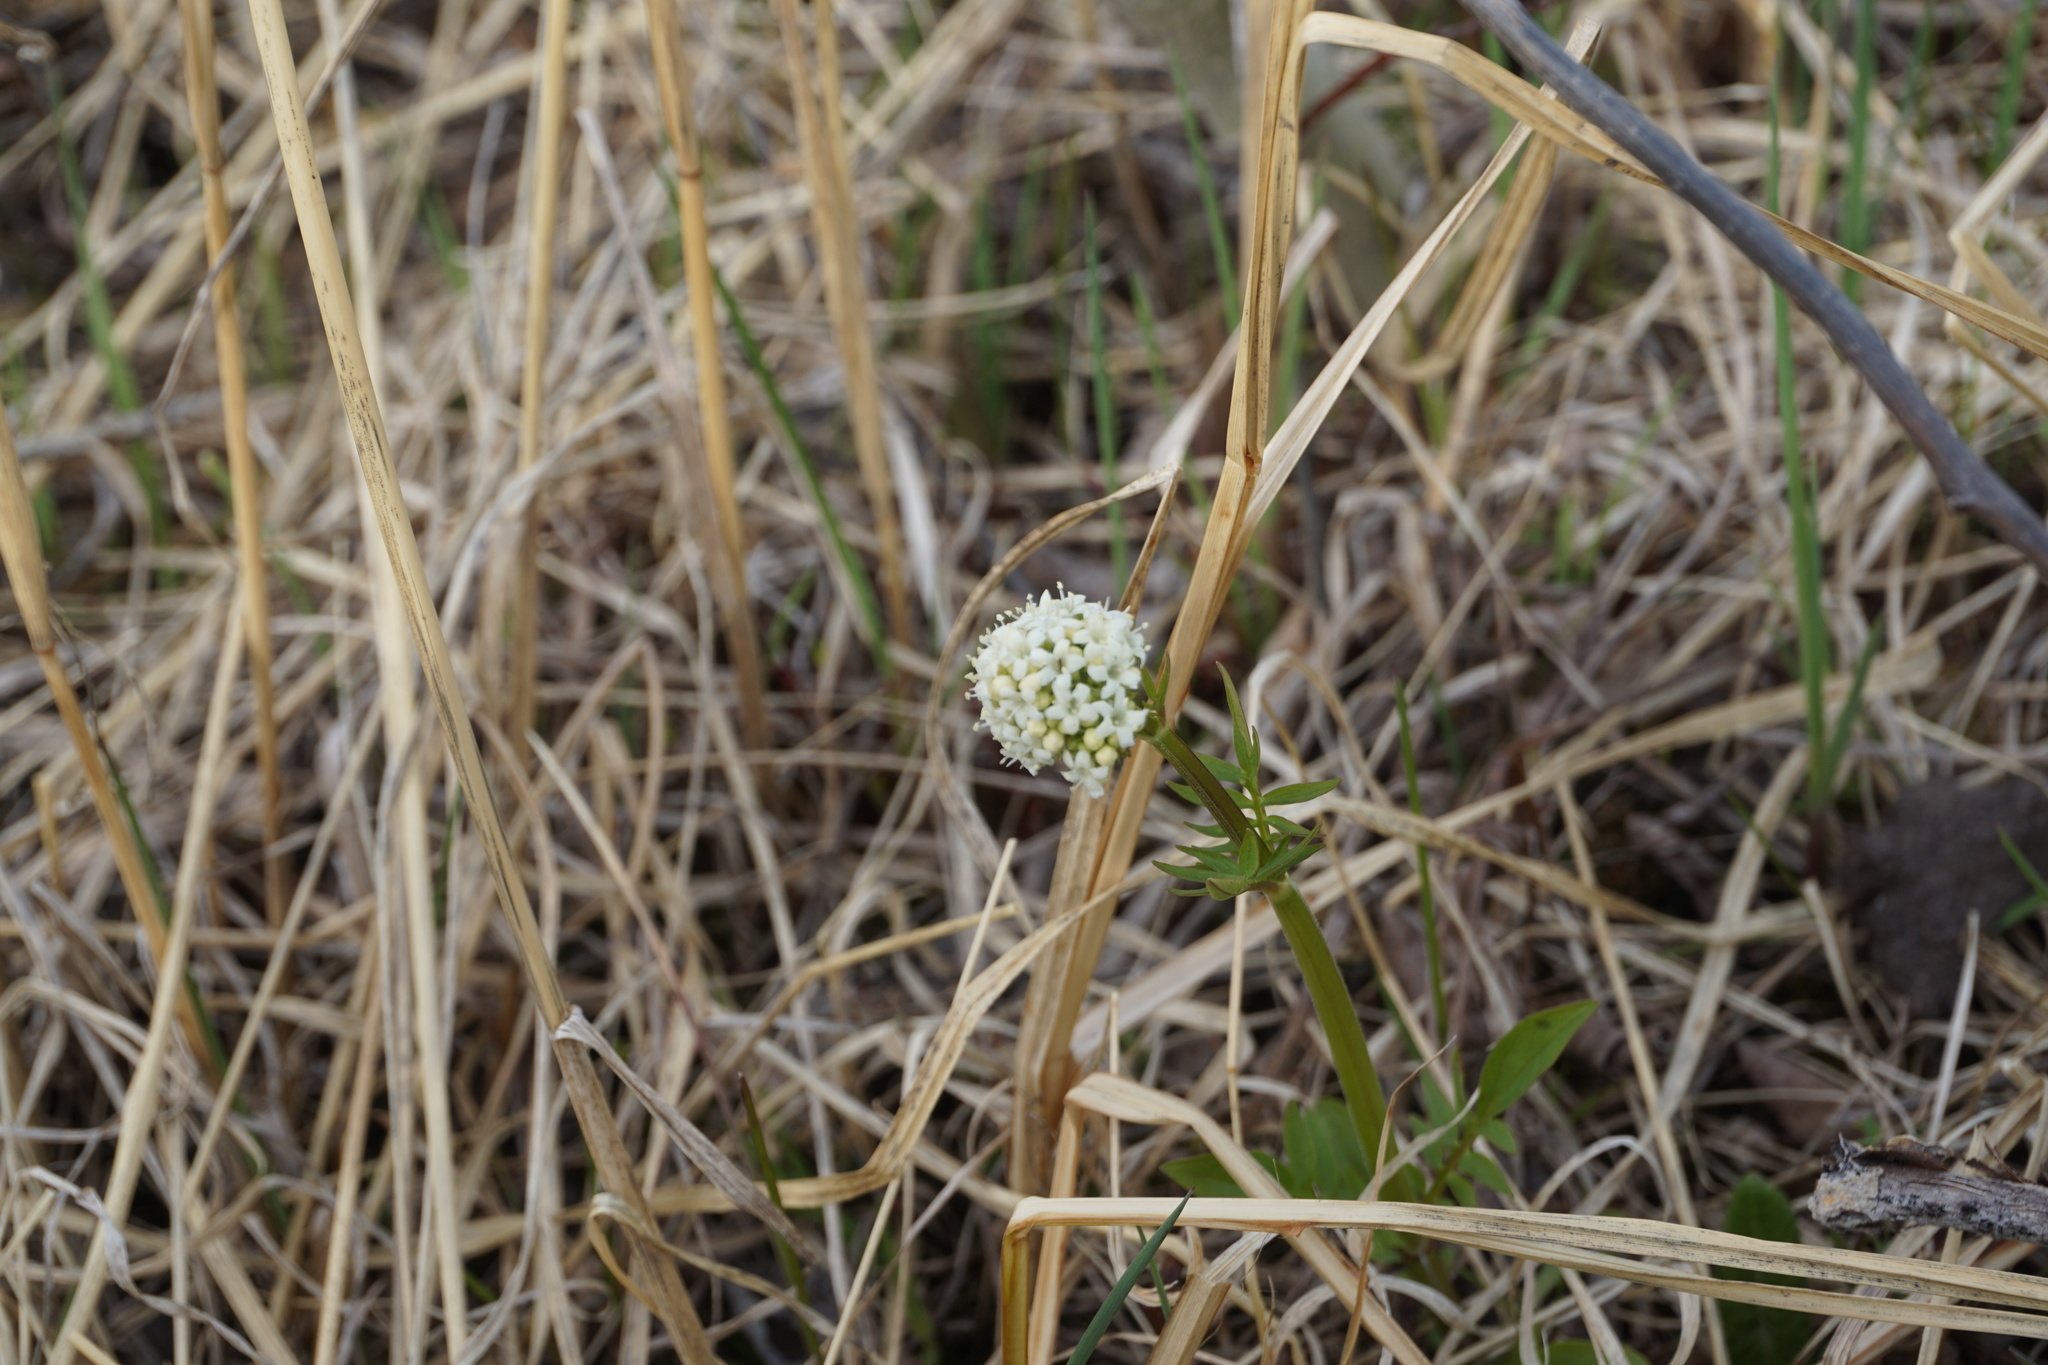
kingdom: Plantae
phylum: Tracheophyta
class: Magnoliopsida
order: Dipsacales
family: Caprifoliaceae
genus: Valeriana
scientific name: Valeriana dioica
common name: Marsh valerian
